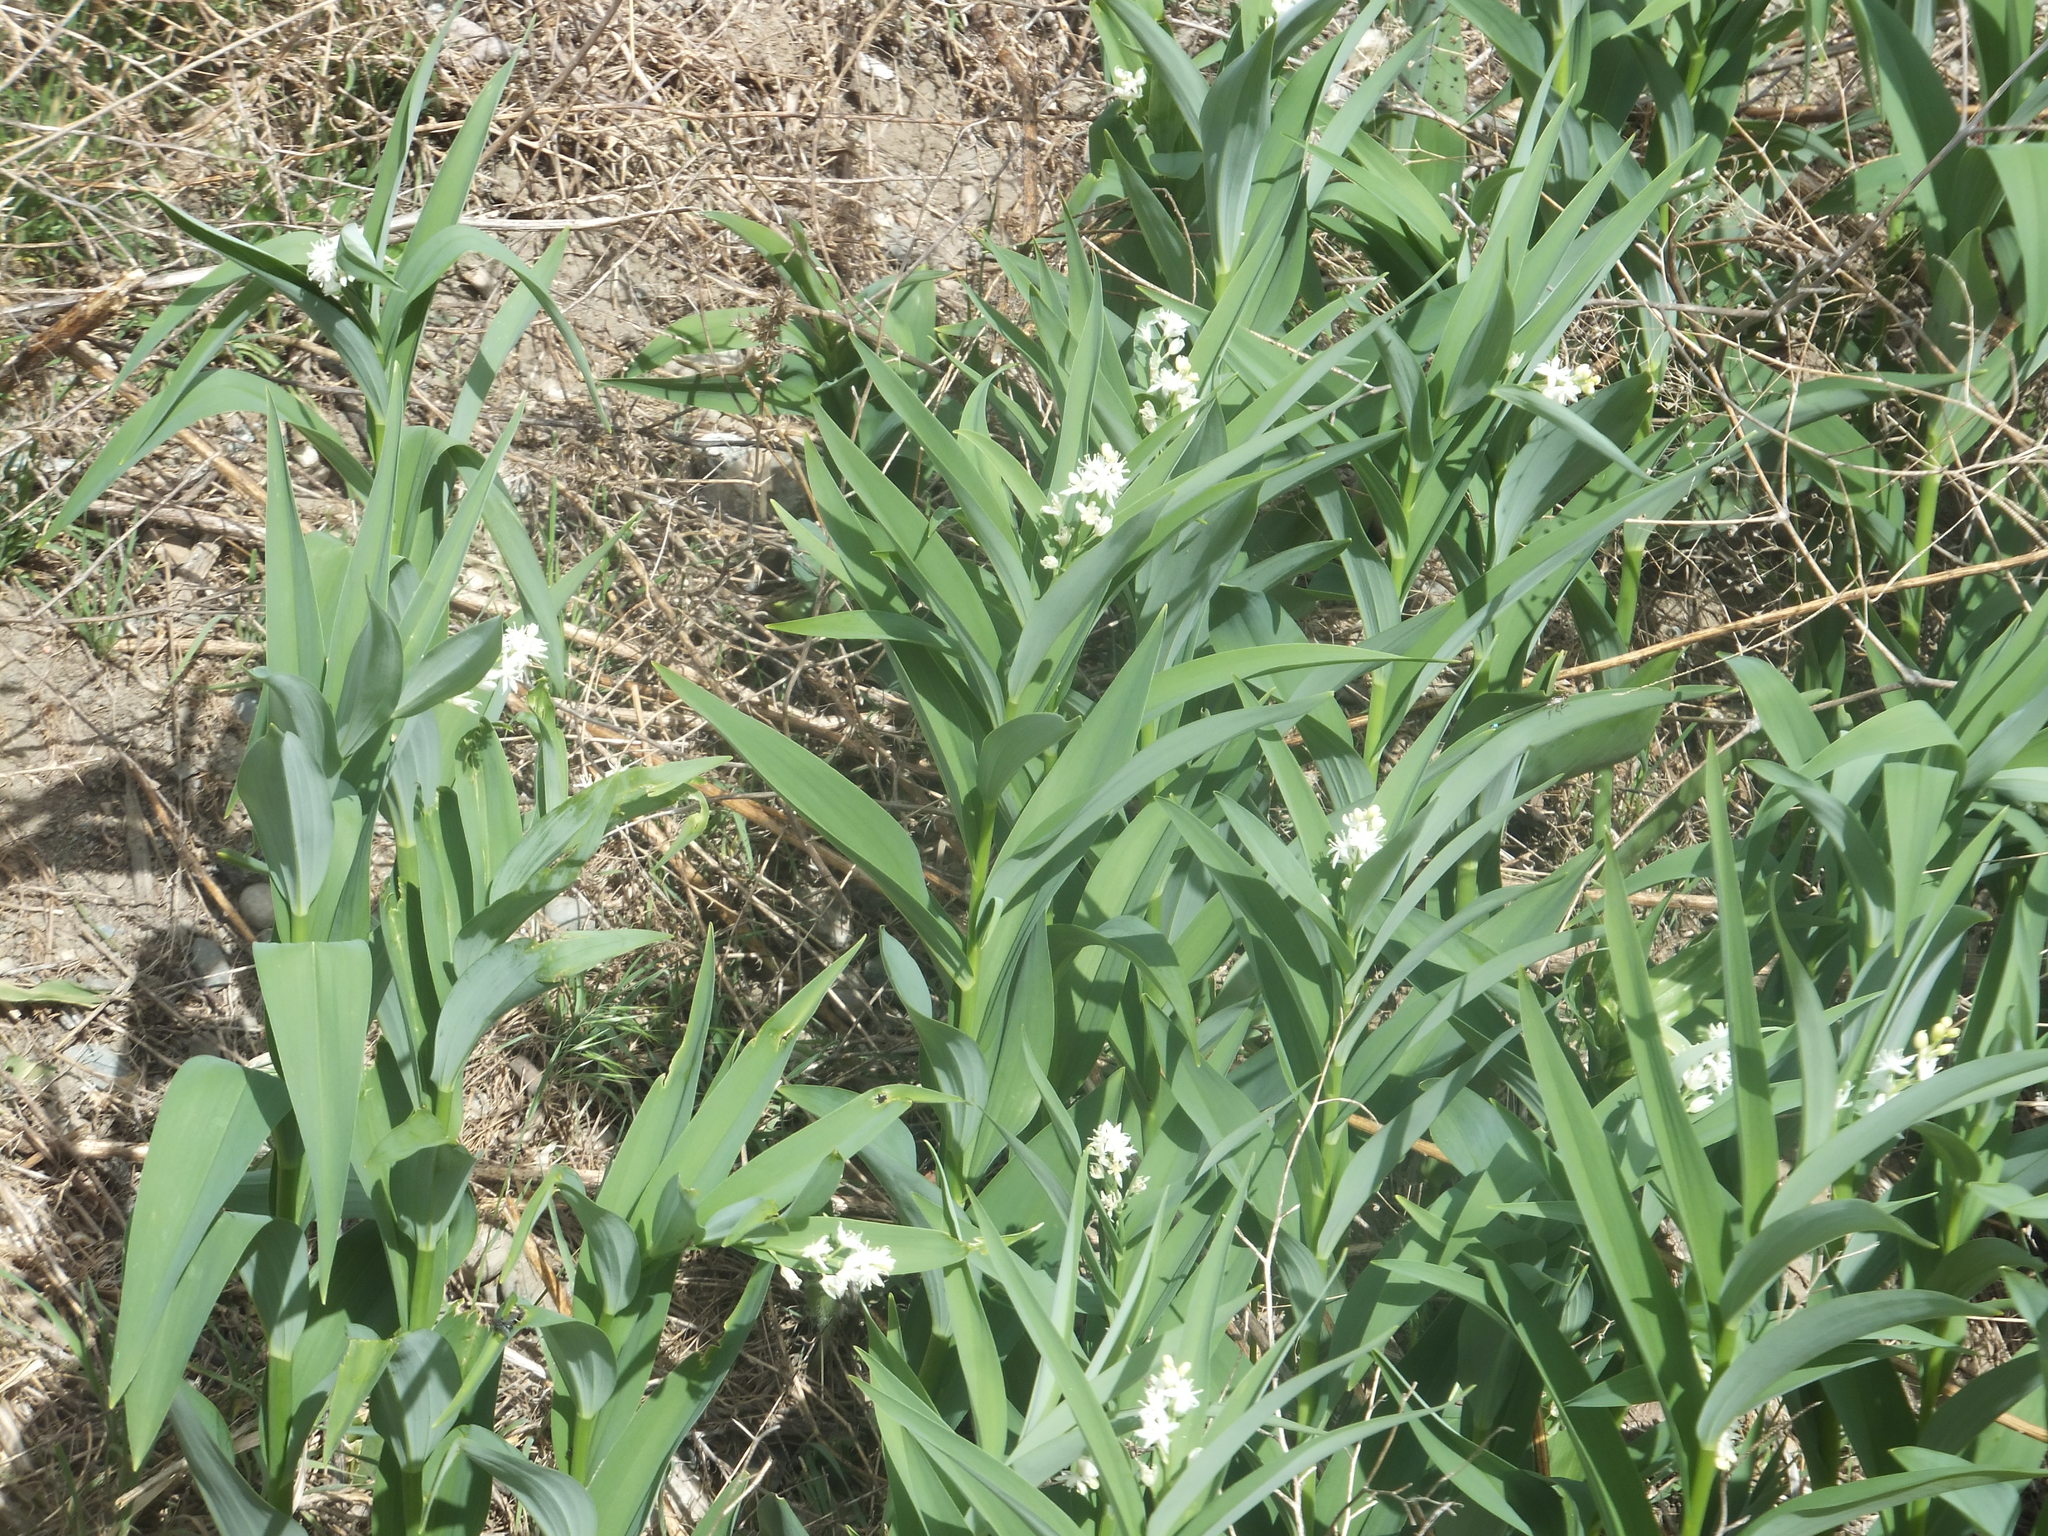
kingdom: Plantae
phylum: Tracheophyta
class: Liliopsida
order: Asparagales
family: Asparagaceae
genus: Maianthemum
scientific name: Maianthemum stellatum
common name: Little false solomon's seal
